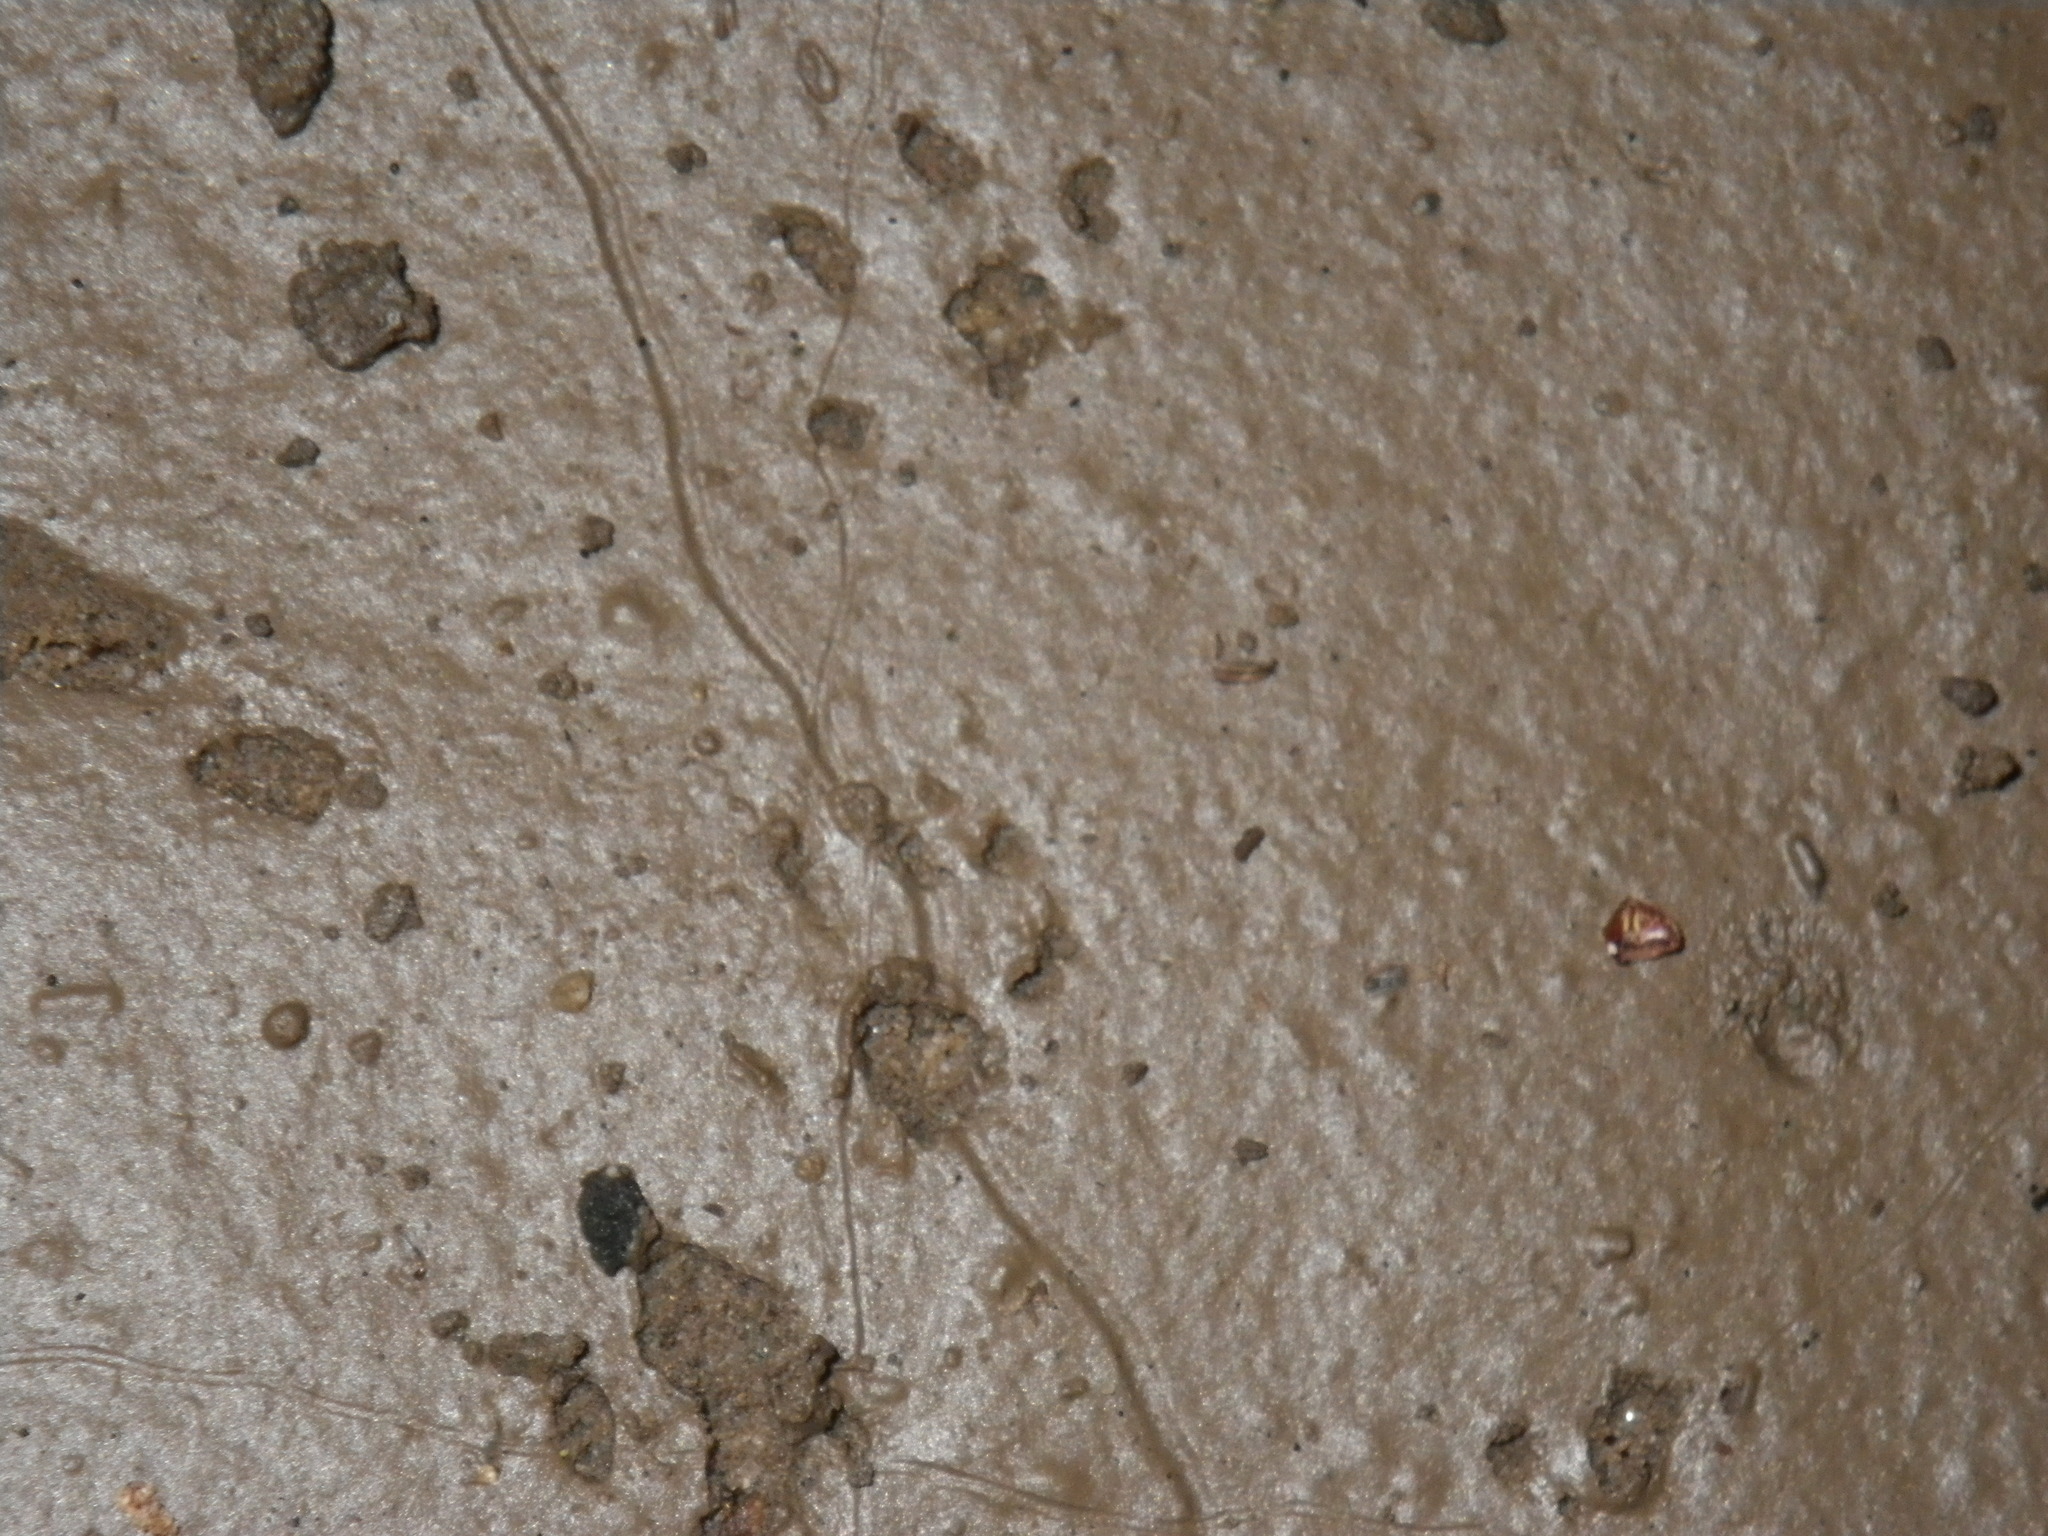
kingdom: Animalia
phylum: Chordata
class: Amphibia
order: Caudata
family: Salamandridae
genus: Taricha
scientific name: Taricha torosa
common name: California newt
